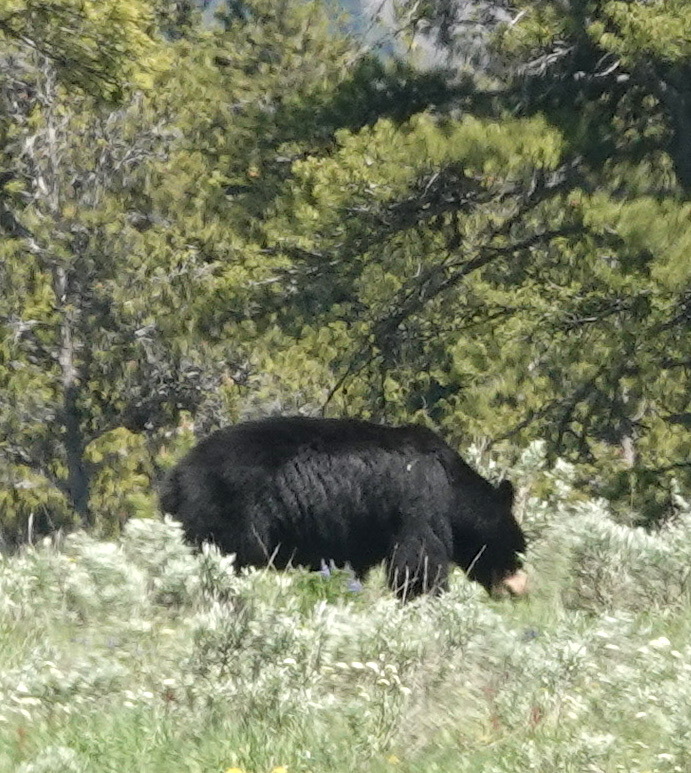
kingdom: Animalia
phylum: Chordata
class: Mammalia
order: Carnivora
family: Ursidae
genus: Ursus
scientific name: Ursus americanus
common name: American black bear
